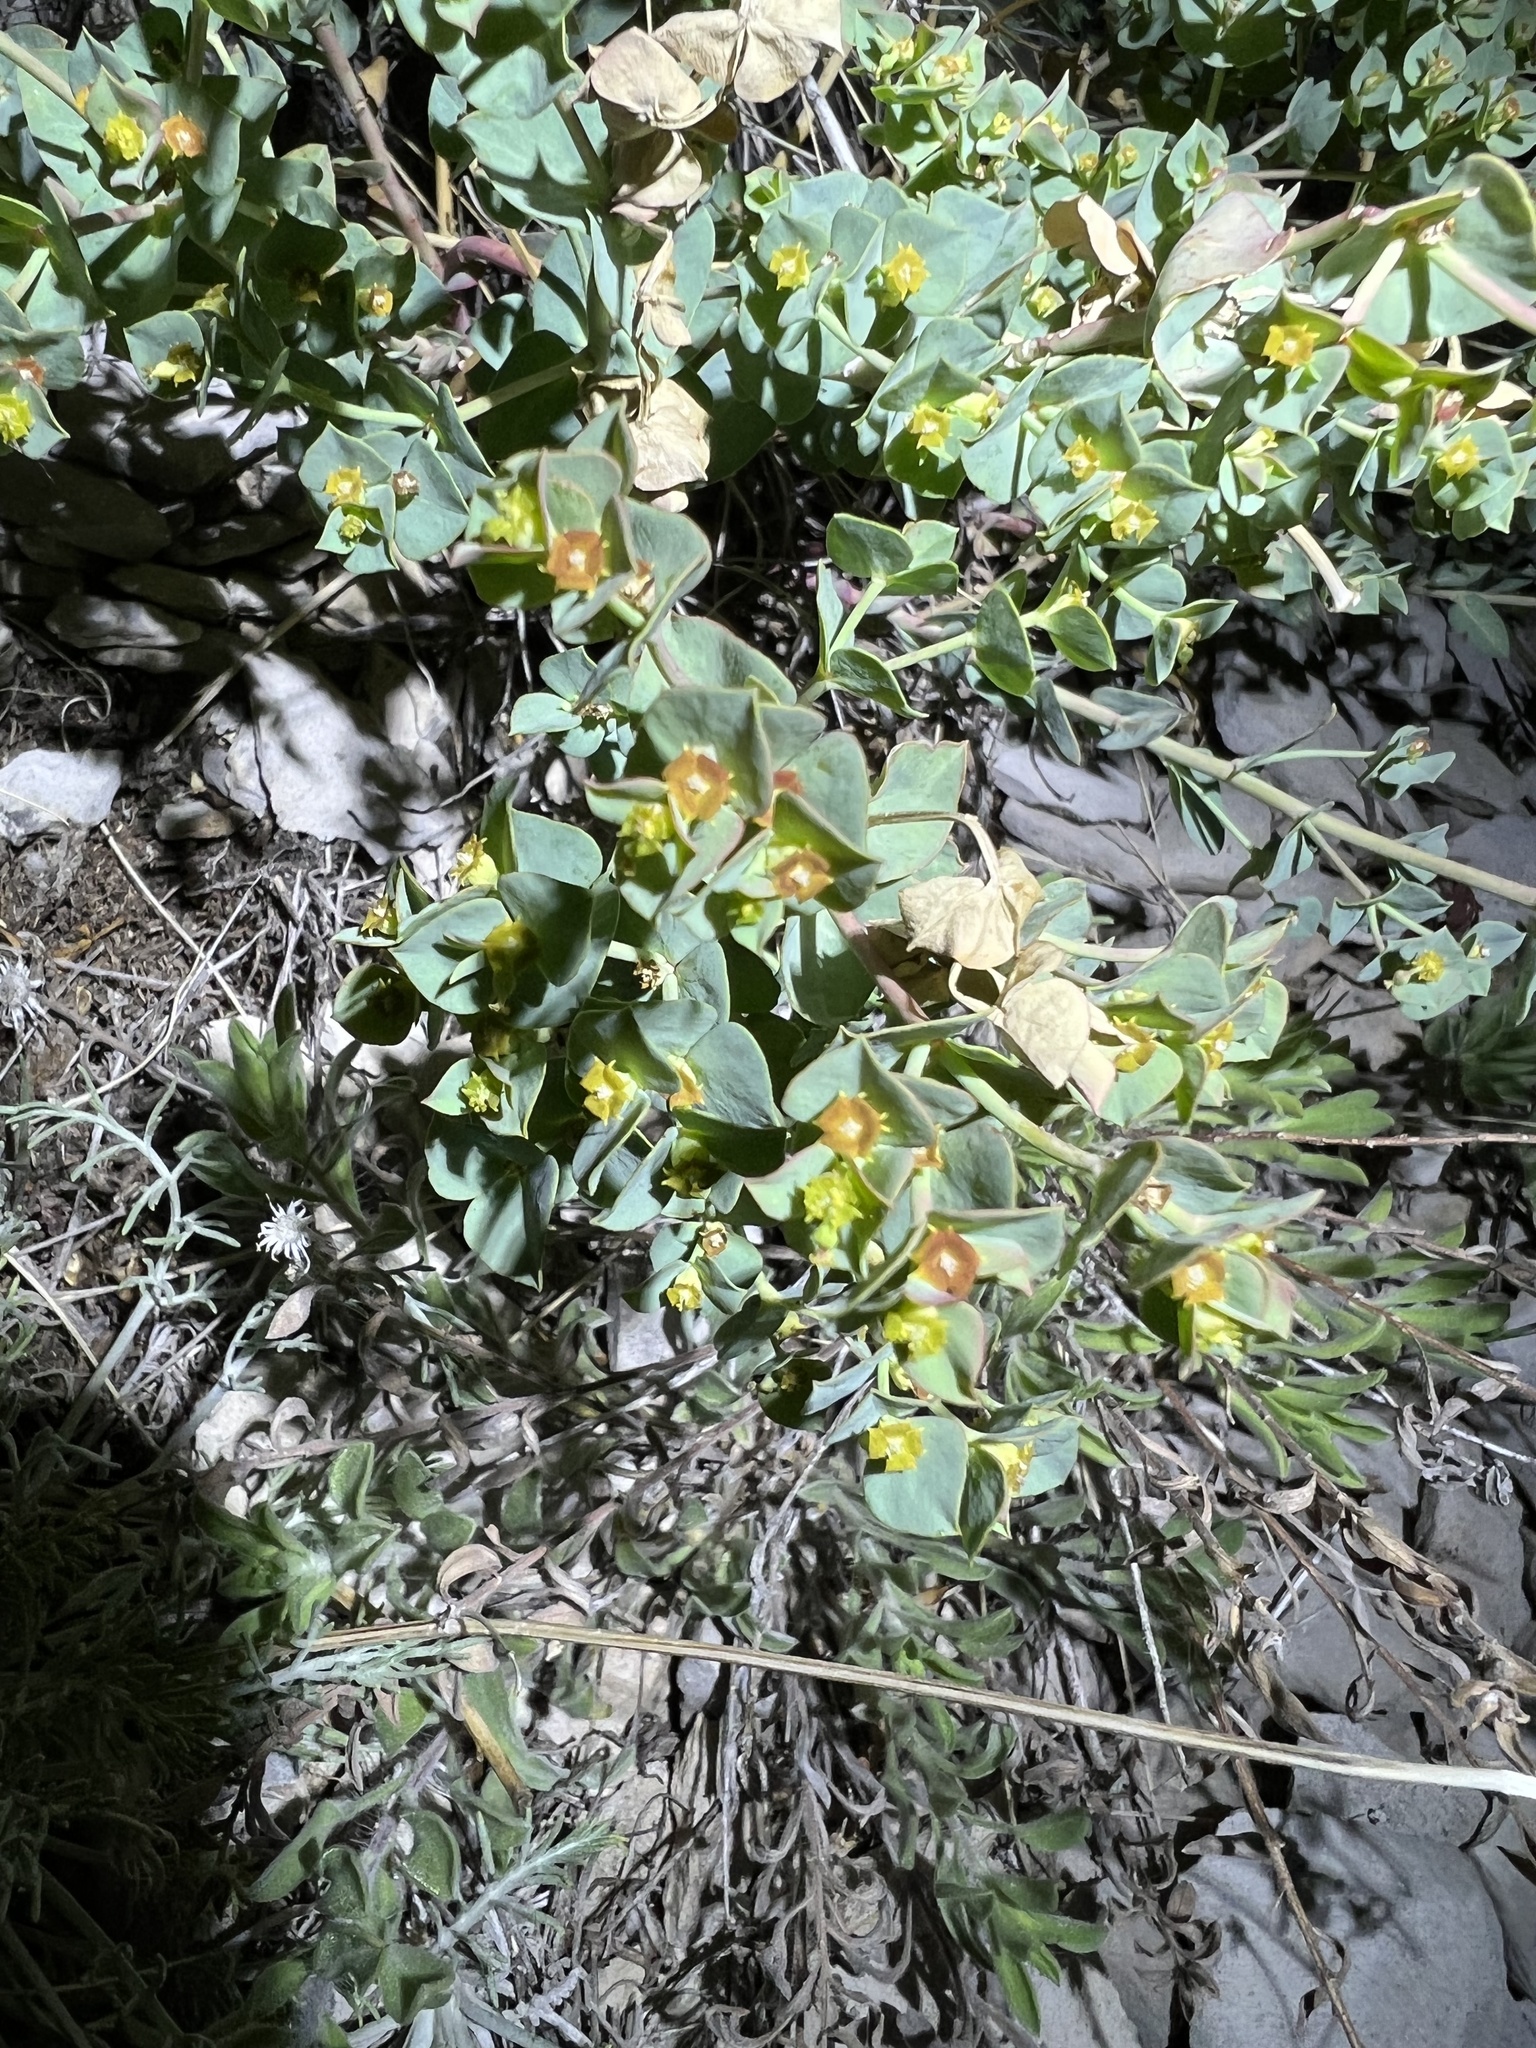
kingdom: Plantae
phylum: Tracheophyta
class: Magnoliopsida
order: Malpighiales
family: Euphorbiaceae
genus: Euphorbia
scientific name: Euphorbia brachycera
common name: Shorthorn spurge
